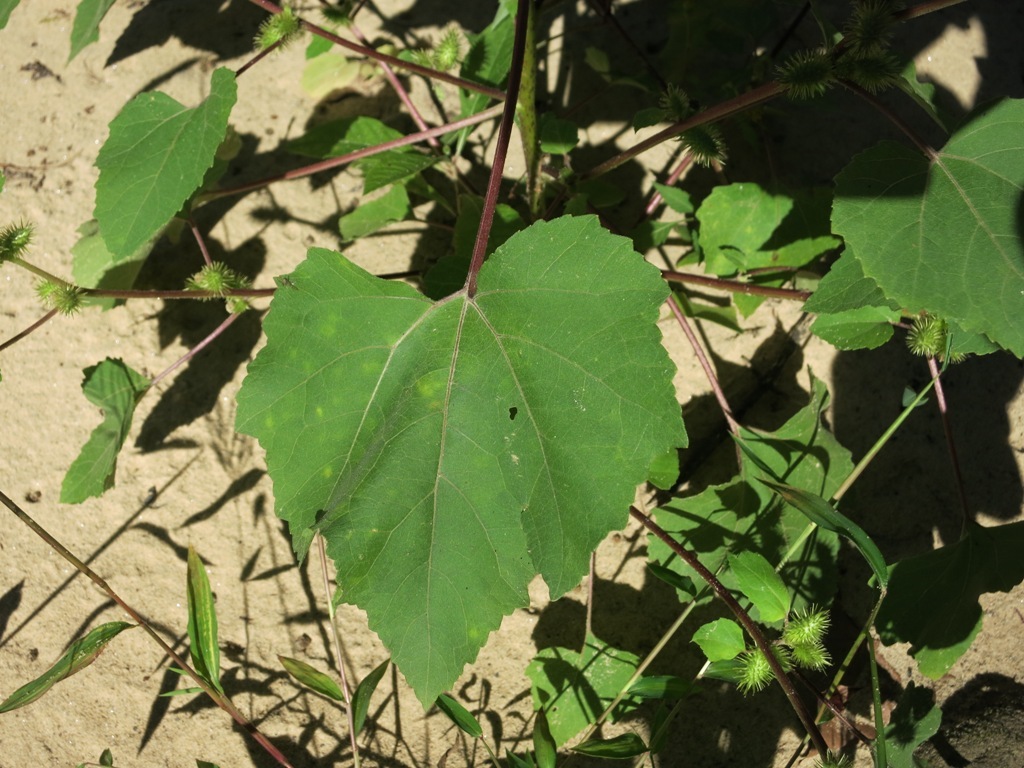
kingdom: Plantae
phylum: Tracheophyta
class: Magnoliopsida
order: Asterales
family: Asteraceae
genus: Xanthium
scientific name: Xanthium strumarium
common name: Rough cocklebur
